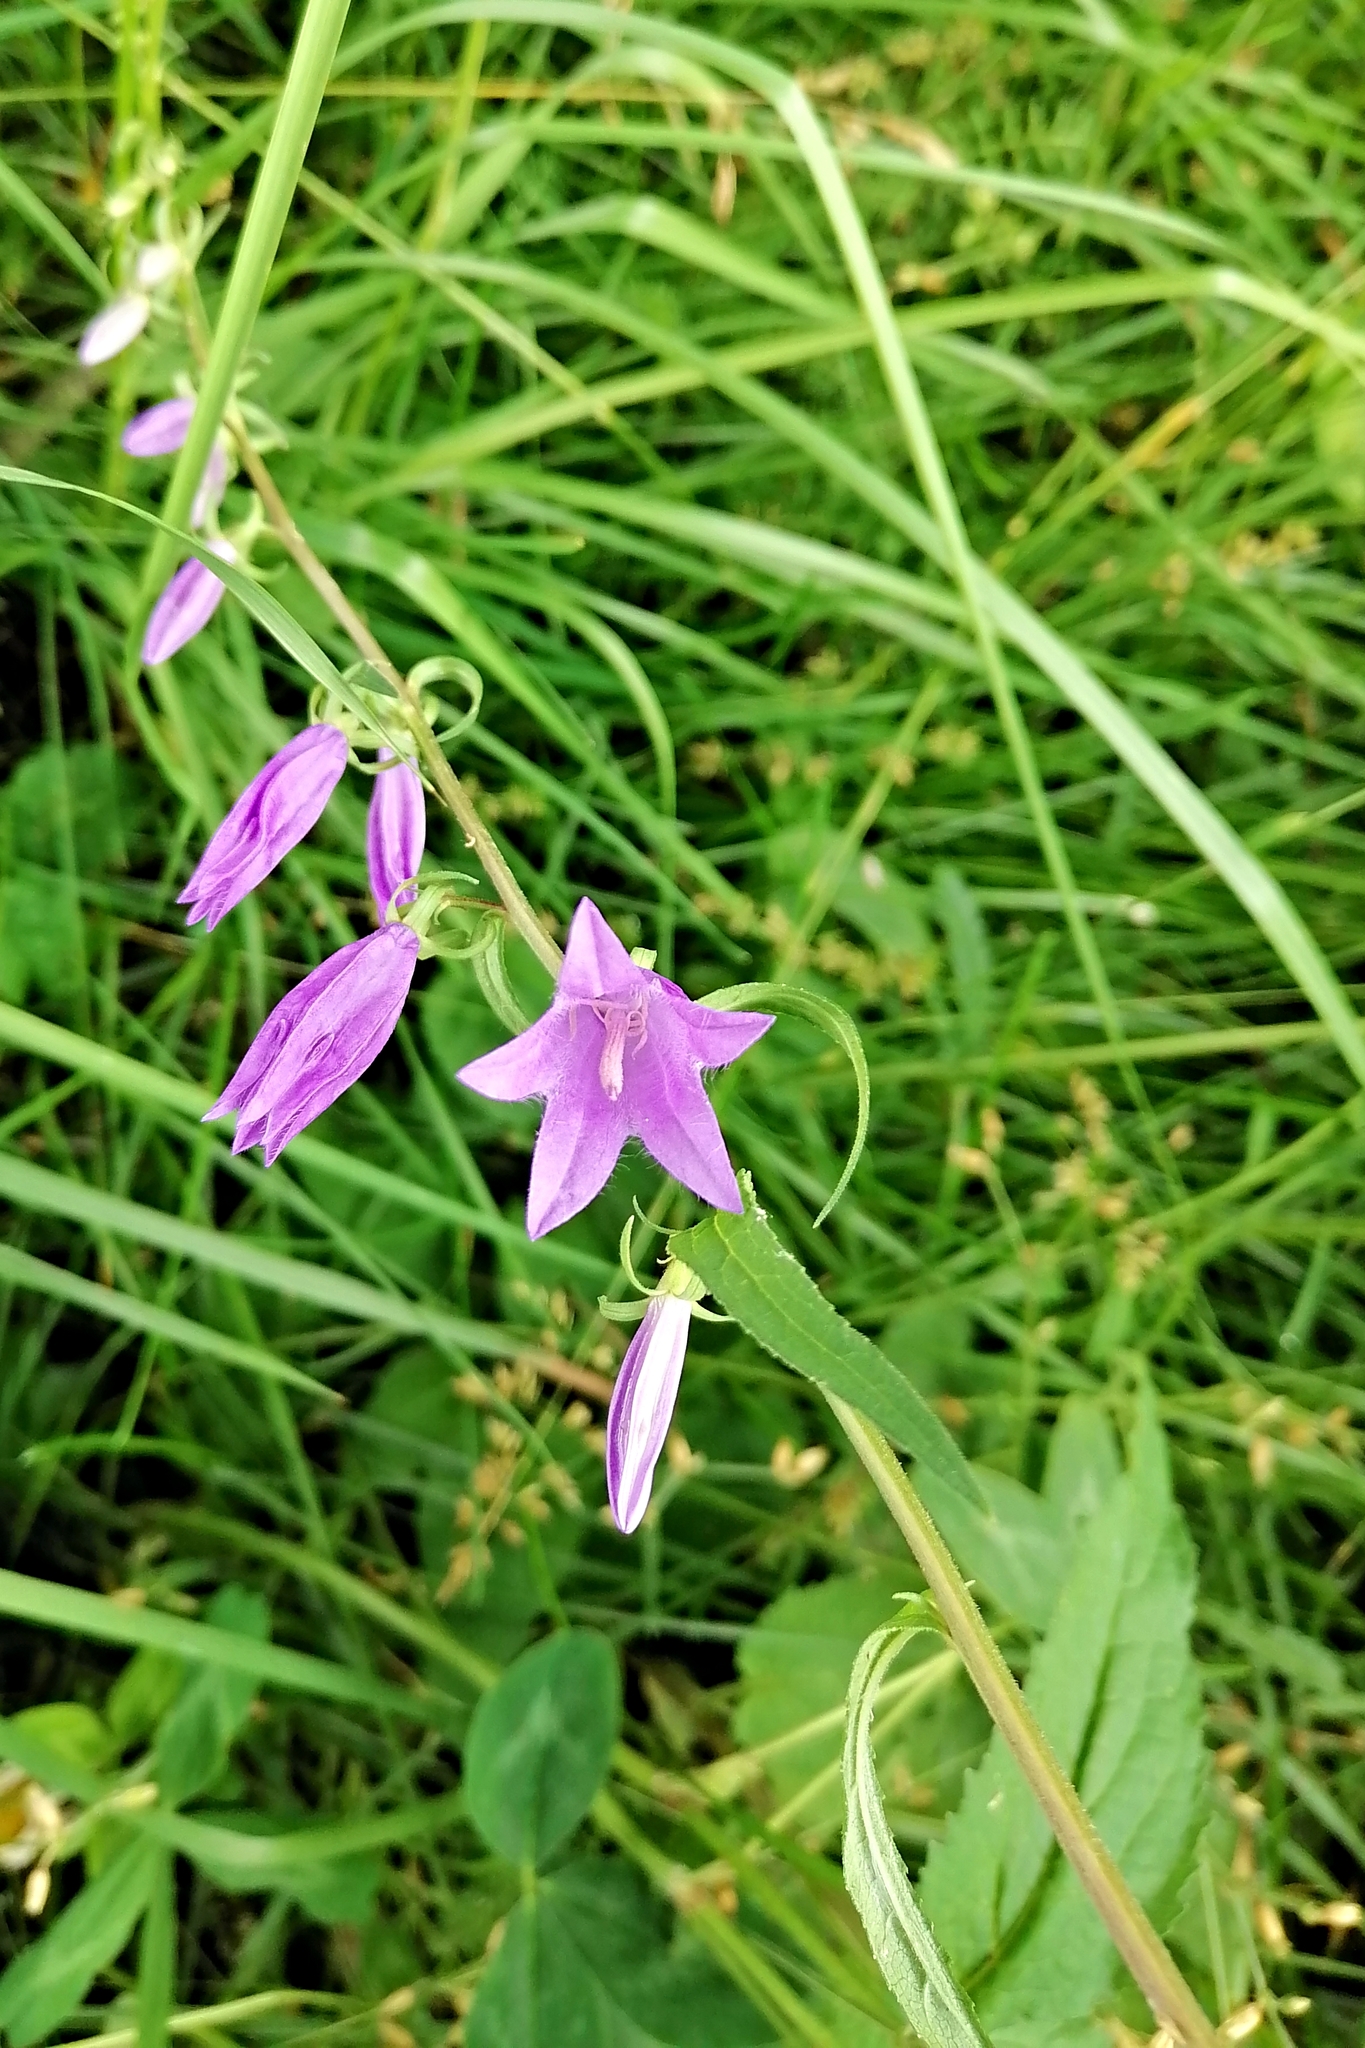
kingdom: Plantae
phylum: Tracheophyta
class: Magnoliopsida
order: Asterales
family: Campanulaceae
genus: Campanula
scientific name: Campanula rapunculoides
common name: Creeping bellflower
